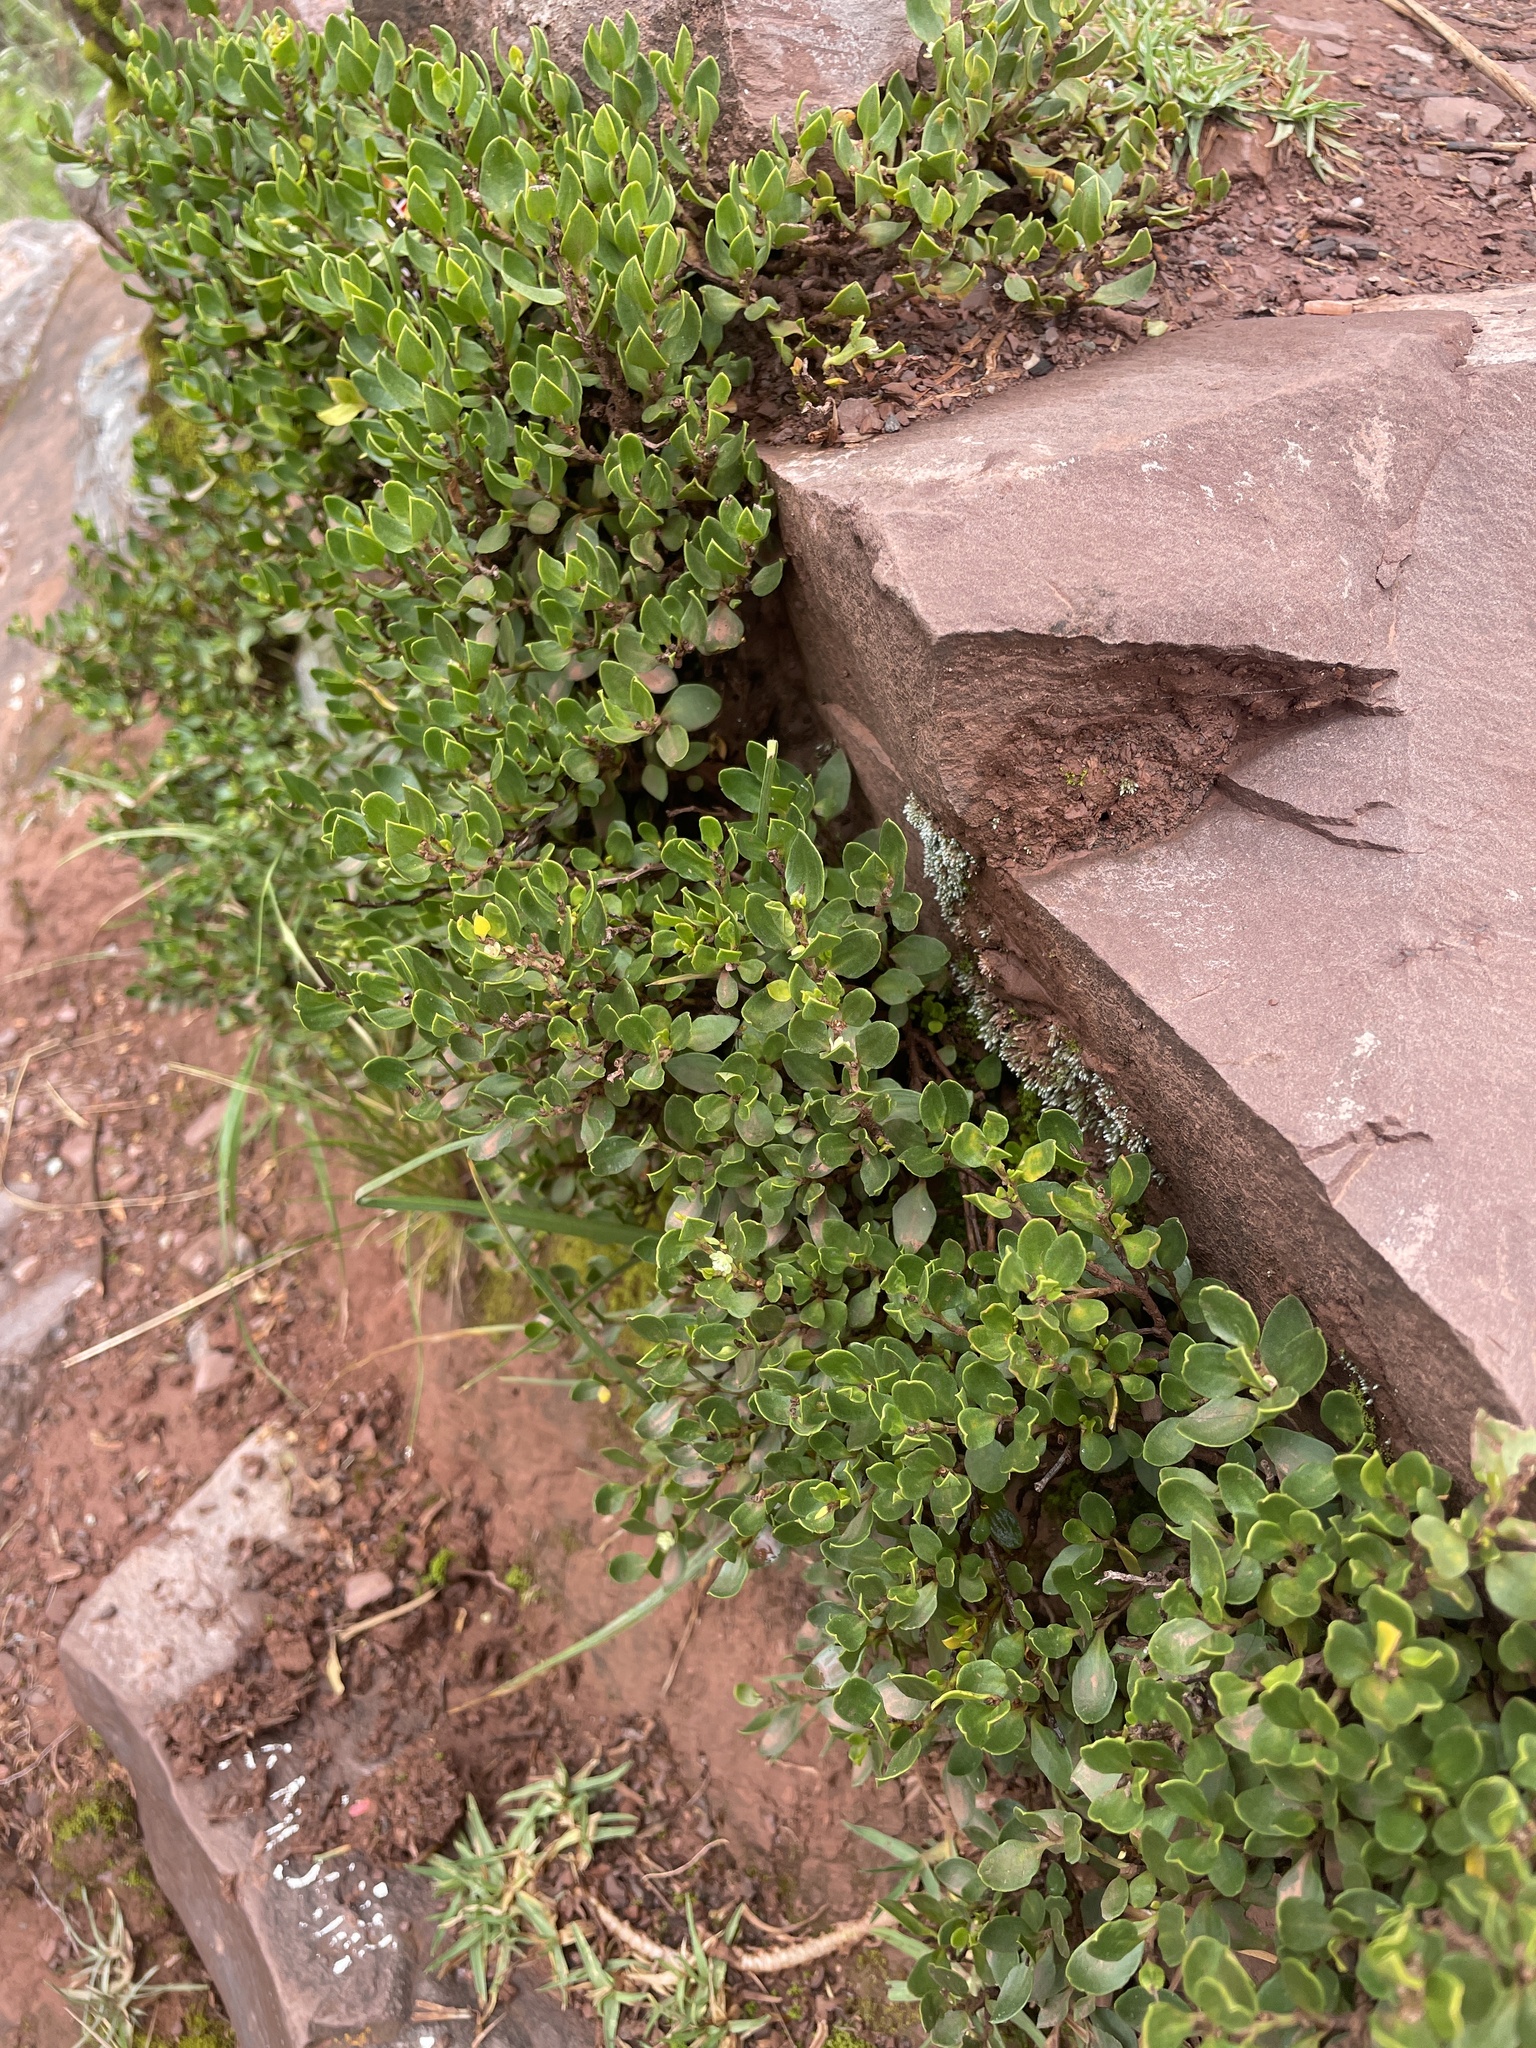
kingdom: Plantae
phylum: Tracheophyta
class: Magnoliopsida
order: Caryophyllales
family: Polygonaceae
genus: Muehlenbeckia
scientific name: Muehlenbeckia volcanica
